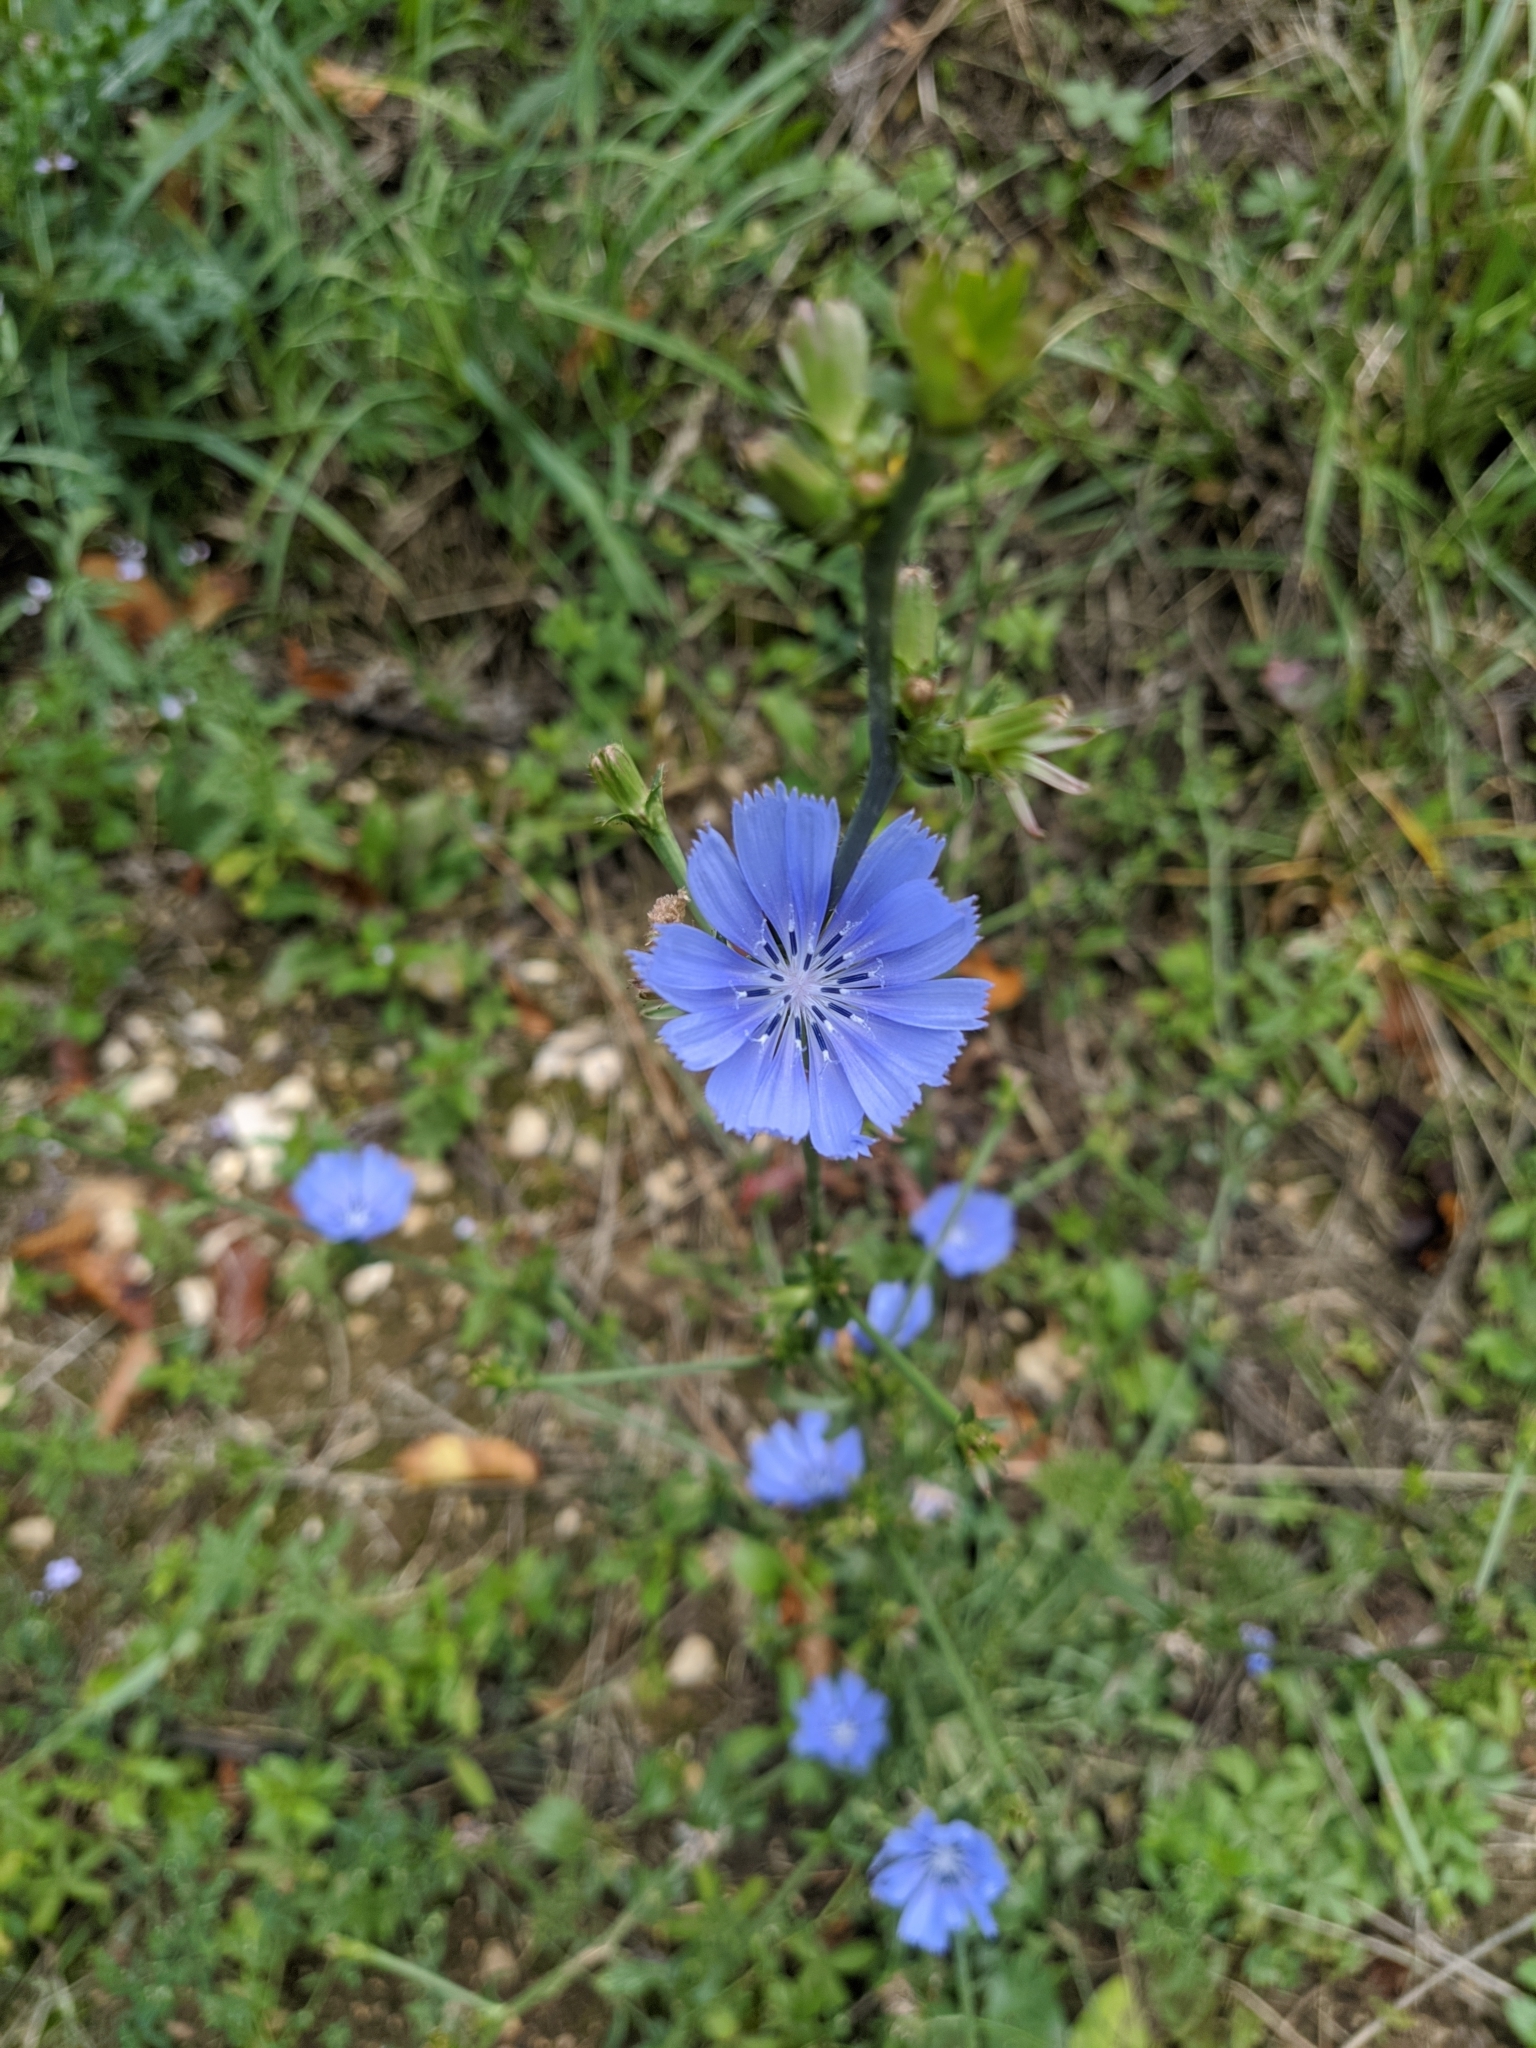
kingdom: Plantae
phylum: Tracheophyta
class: Magnoliopsida
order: Asterales
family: Asteraceae
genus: Cichorium
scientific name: Cichorium intybus
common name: Chicory
